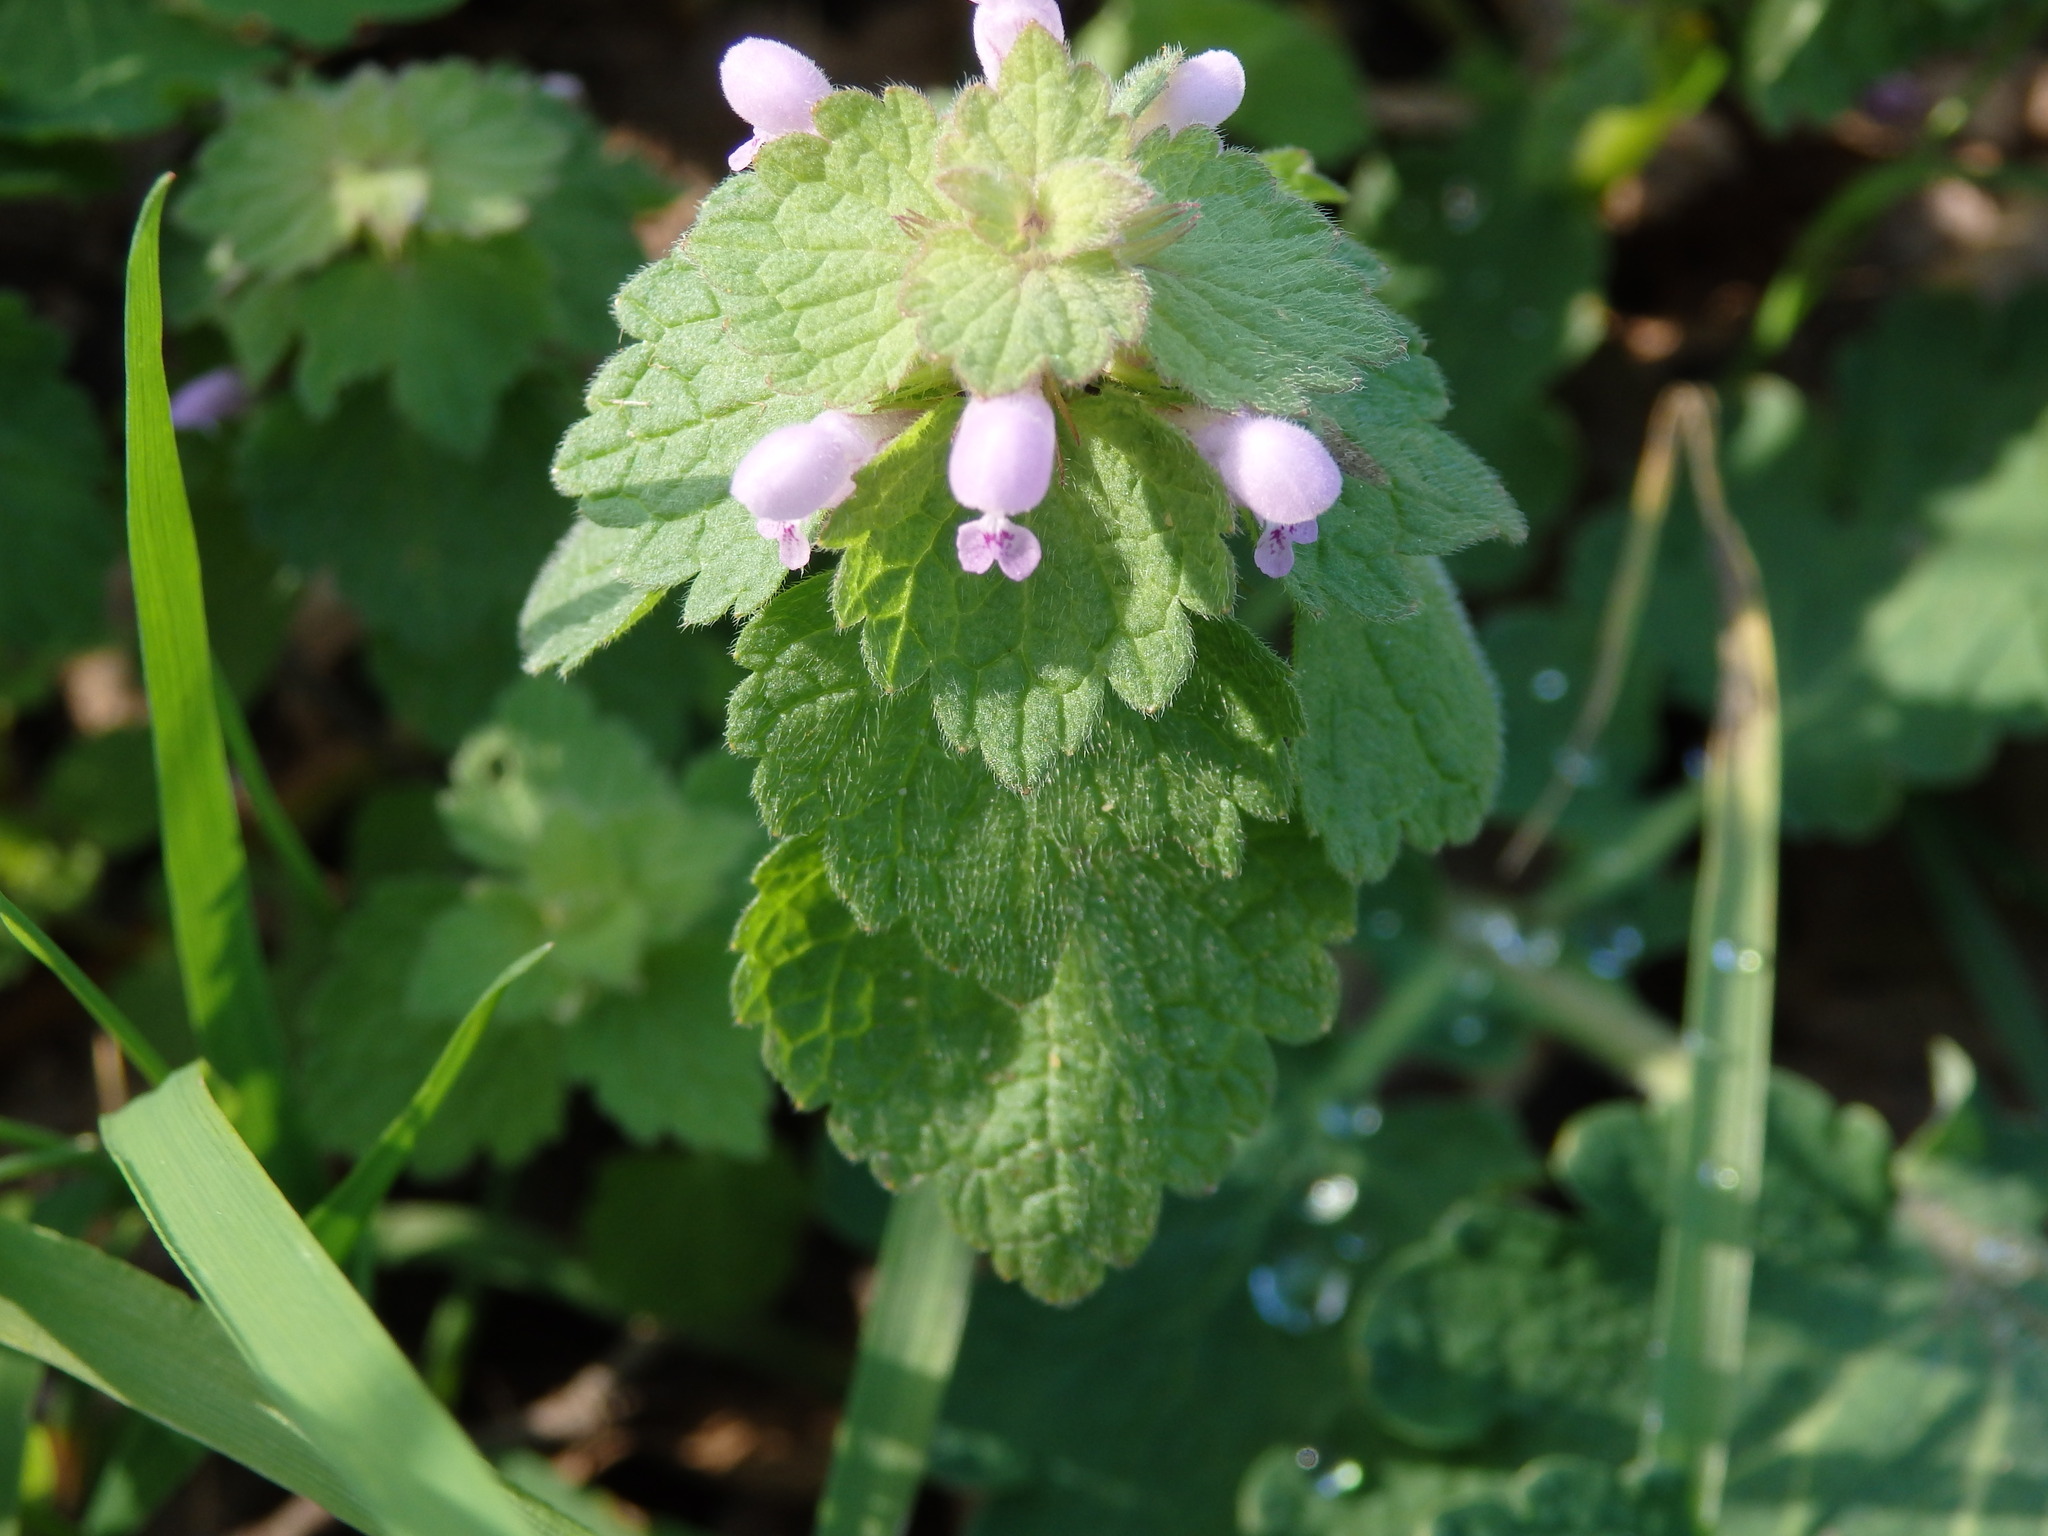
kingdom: Plantae
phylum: Tracheophyta
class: Magnoliopsida
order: Lamiales
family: Lamiaceae
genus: Lamium
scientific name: Lamium purpureum
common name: Red dead-nettle
